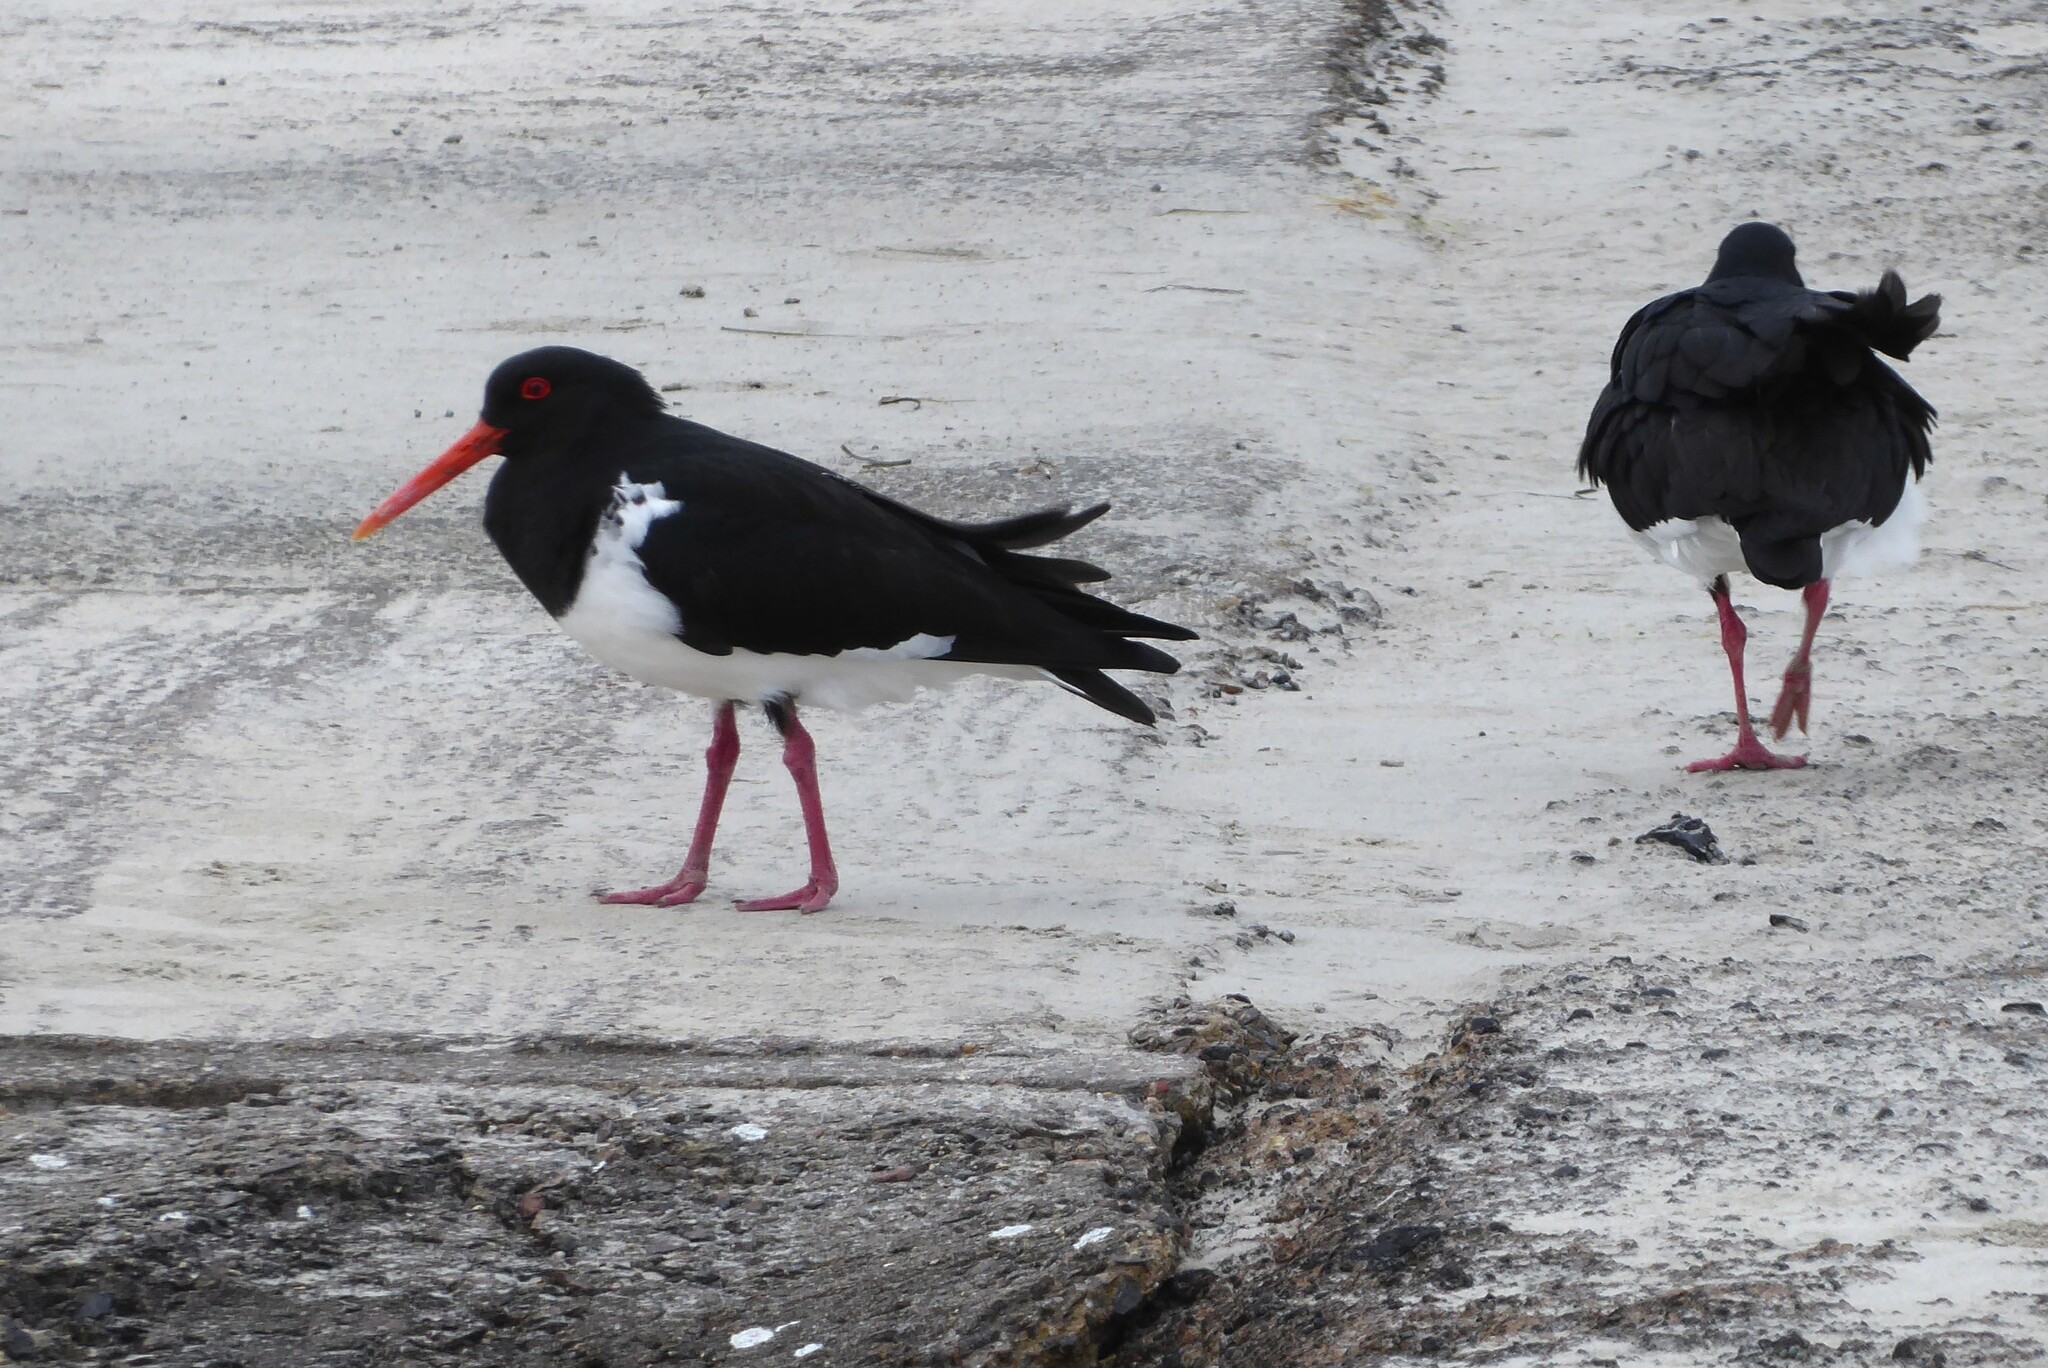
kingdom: Animalia
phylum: Chordata
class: Aves
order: Charadriiformes
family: Haematopodidae
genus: Haematopus
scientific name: Haematopus longirostris
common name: Pied oystercatcher
